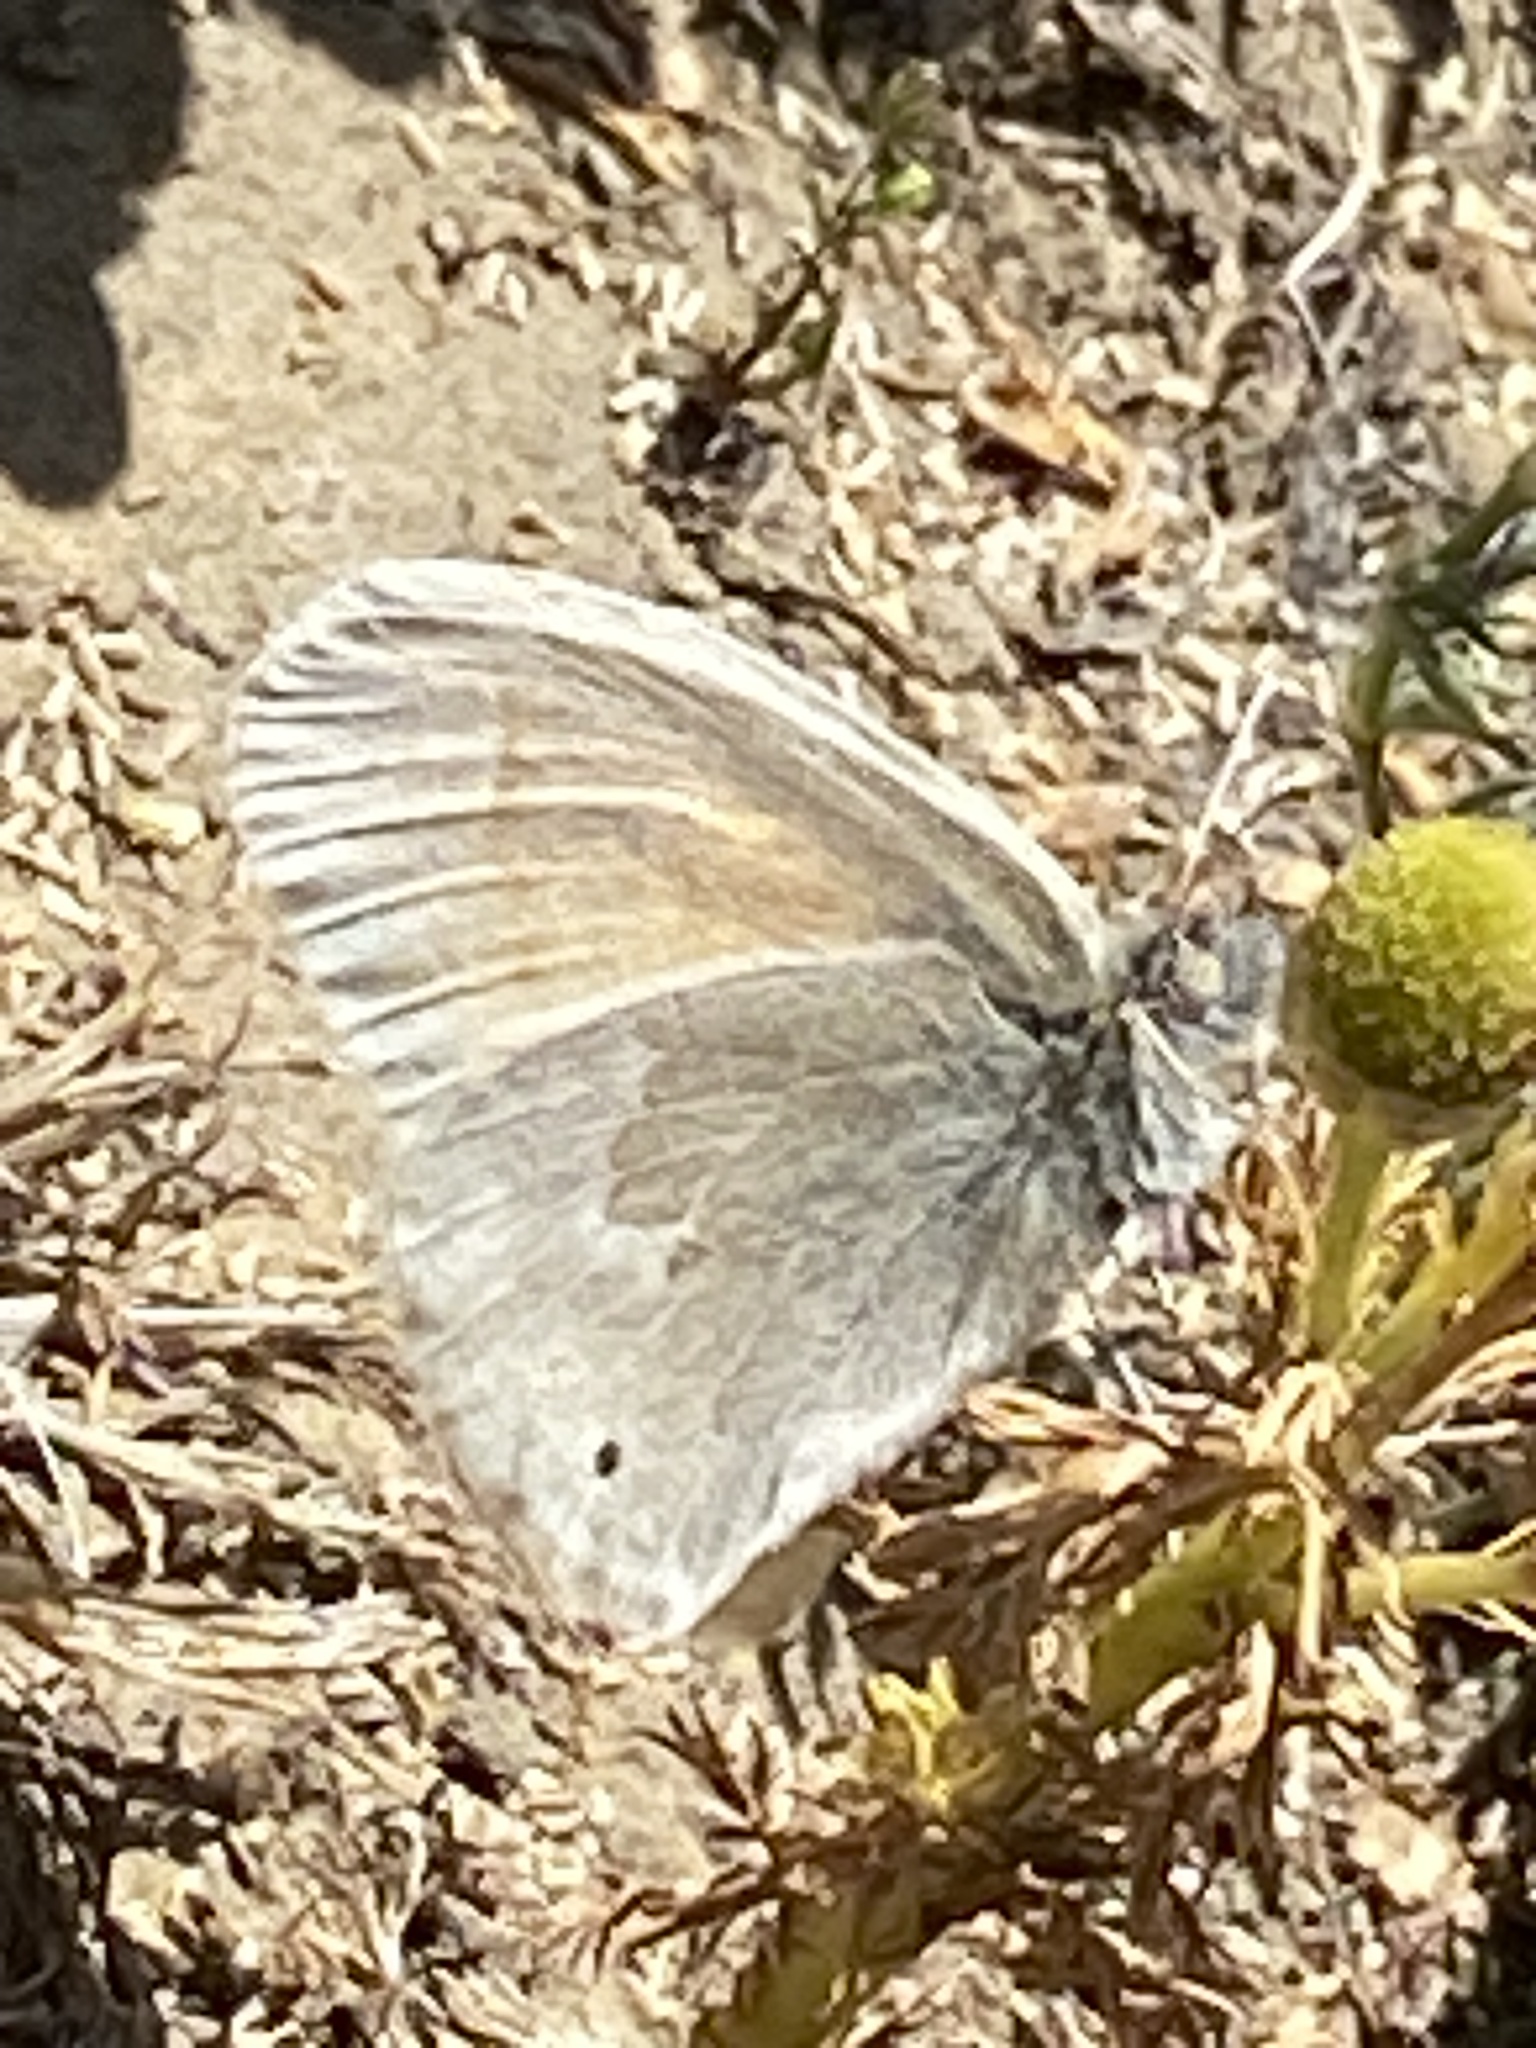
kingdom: Animalia
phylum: Arthropoda
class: Insecta
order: Lepidoptera
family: Nymphalidae
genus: Coenonympha
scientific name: Coenonympha california
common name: Common ringlet
